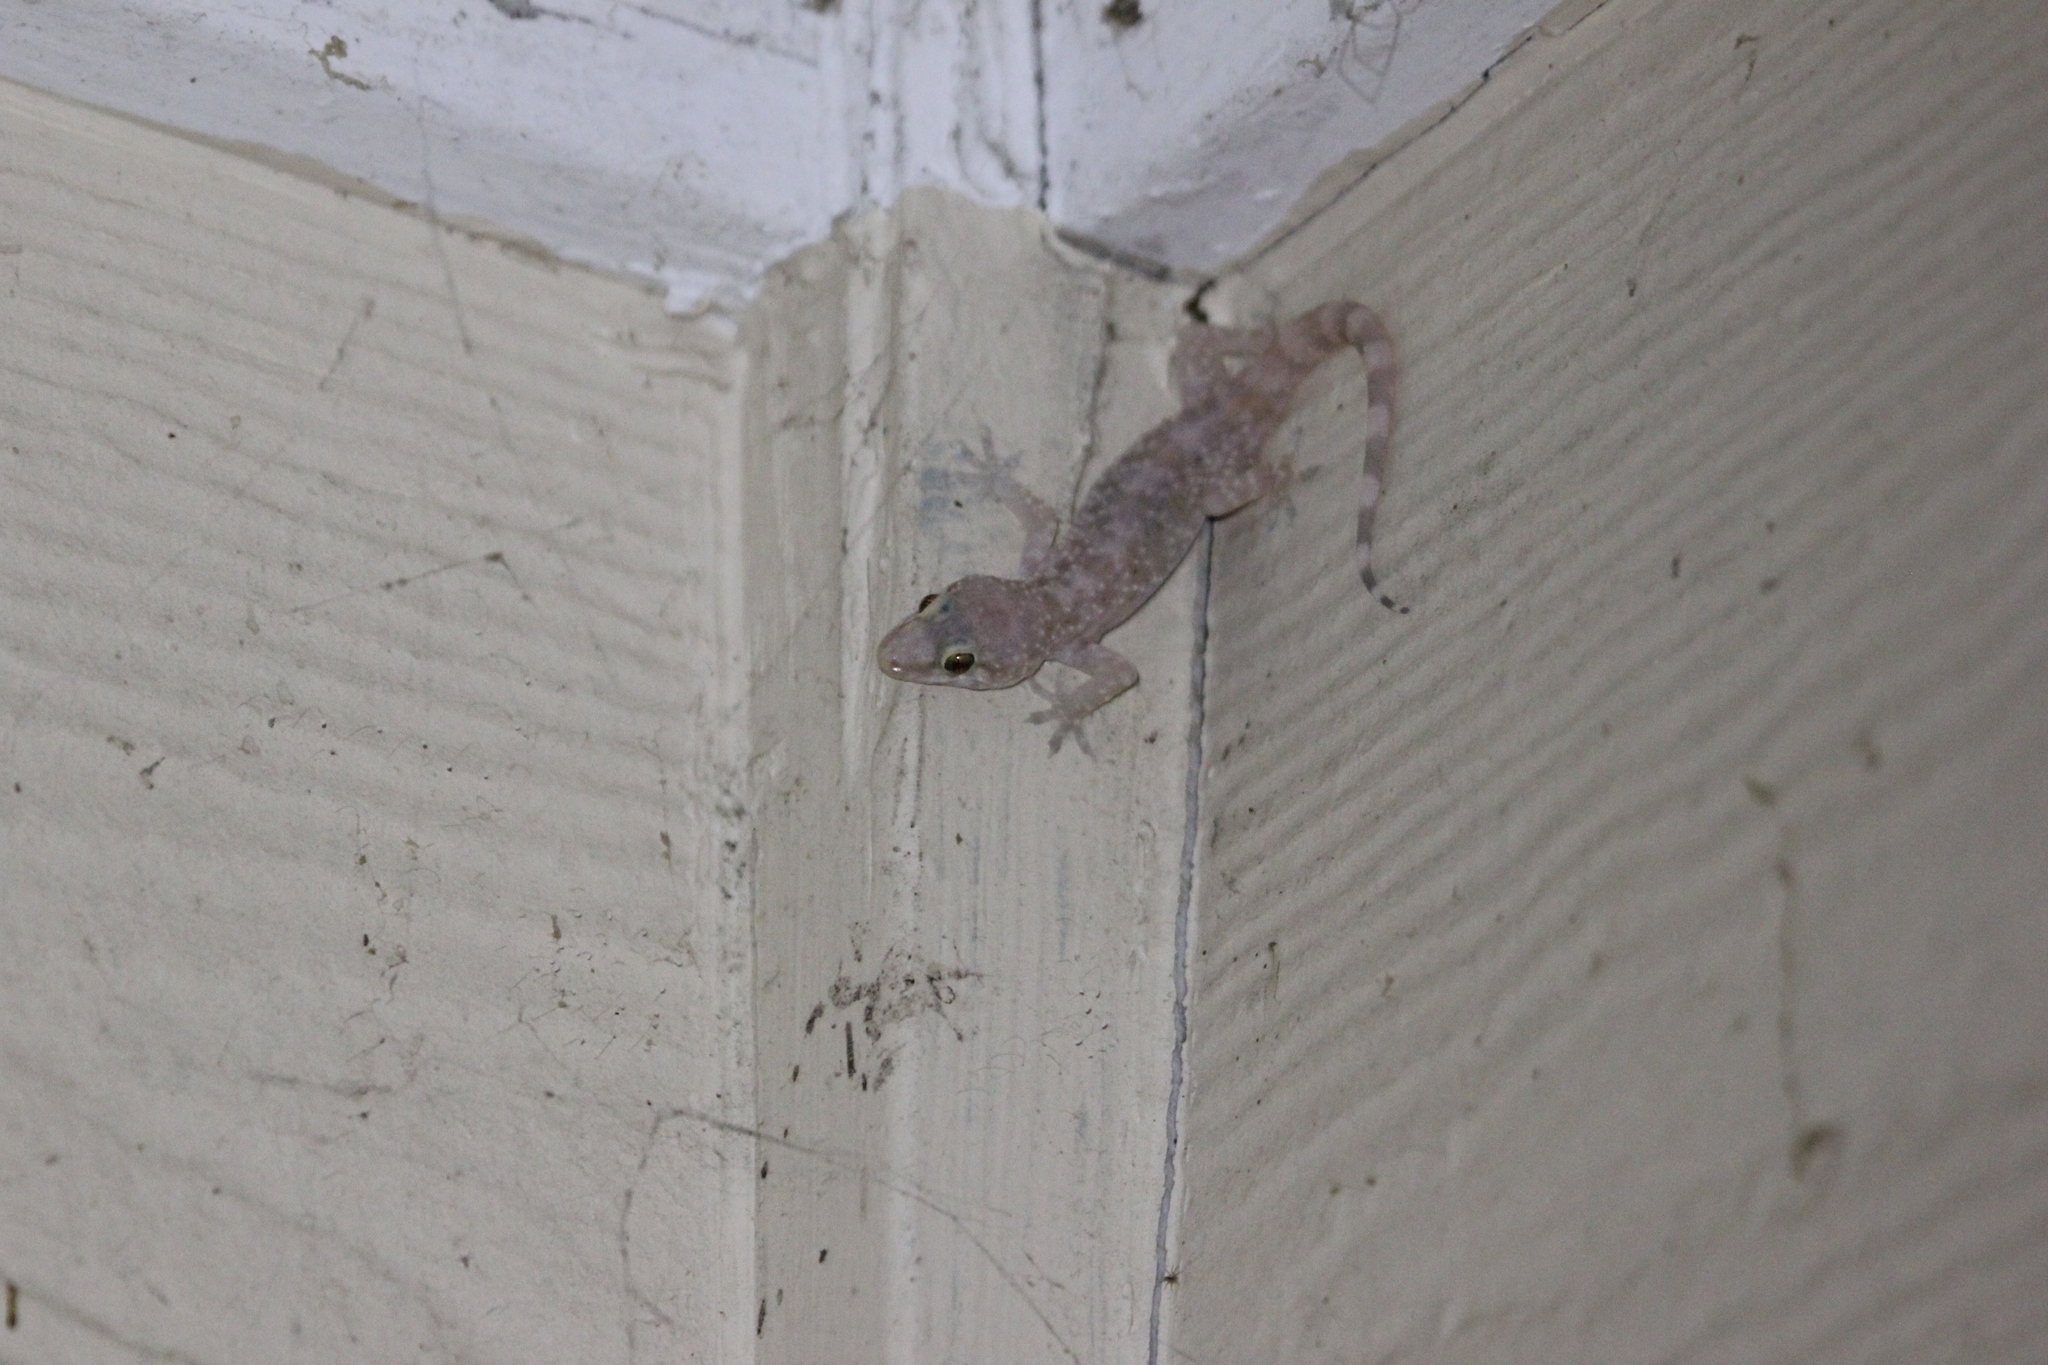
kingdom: Animalia
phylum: Chordata
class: Squamata
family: Gekkonidae
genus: Hemidactylus
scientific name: Hemidactylus turcicus
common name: Turkish gecko
